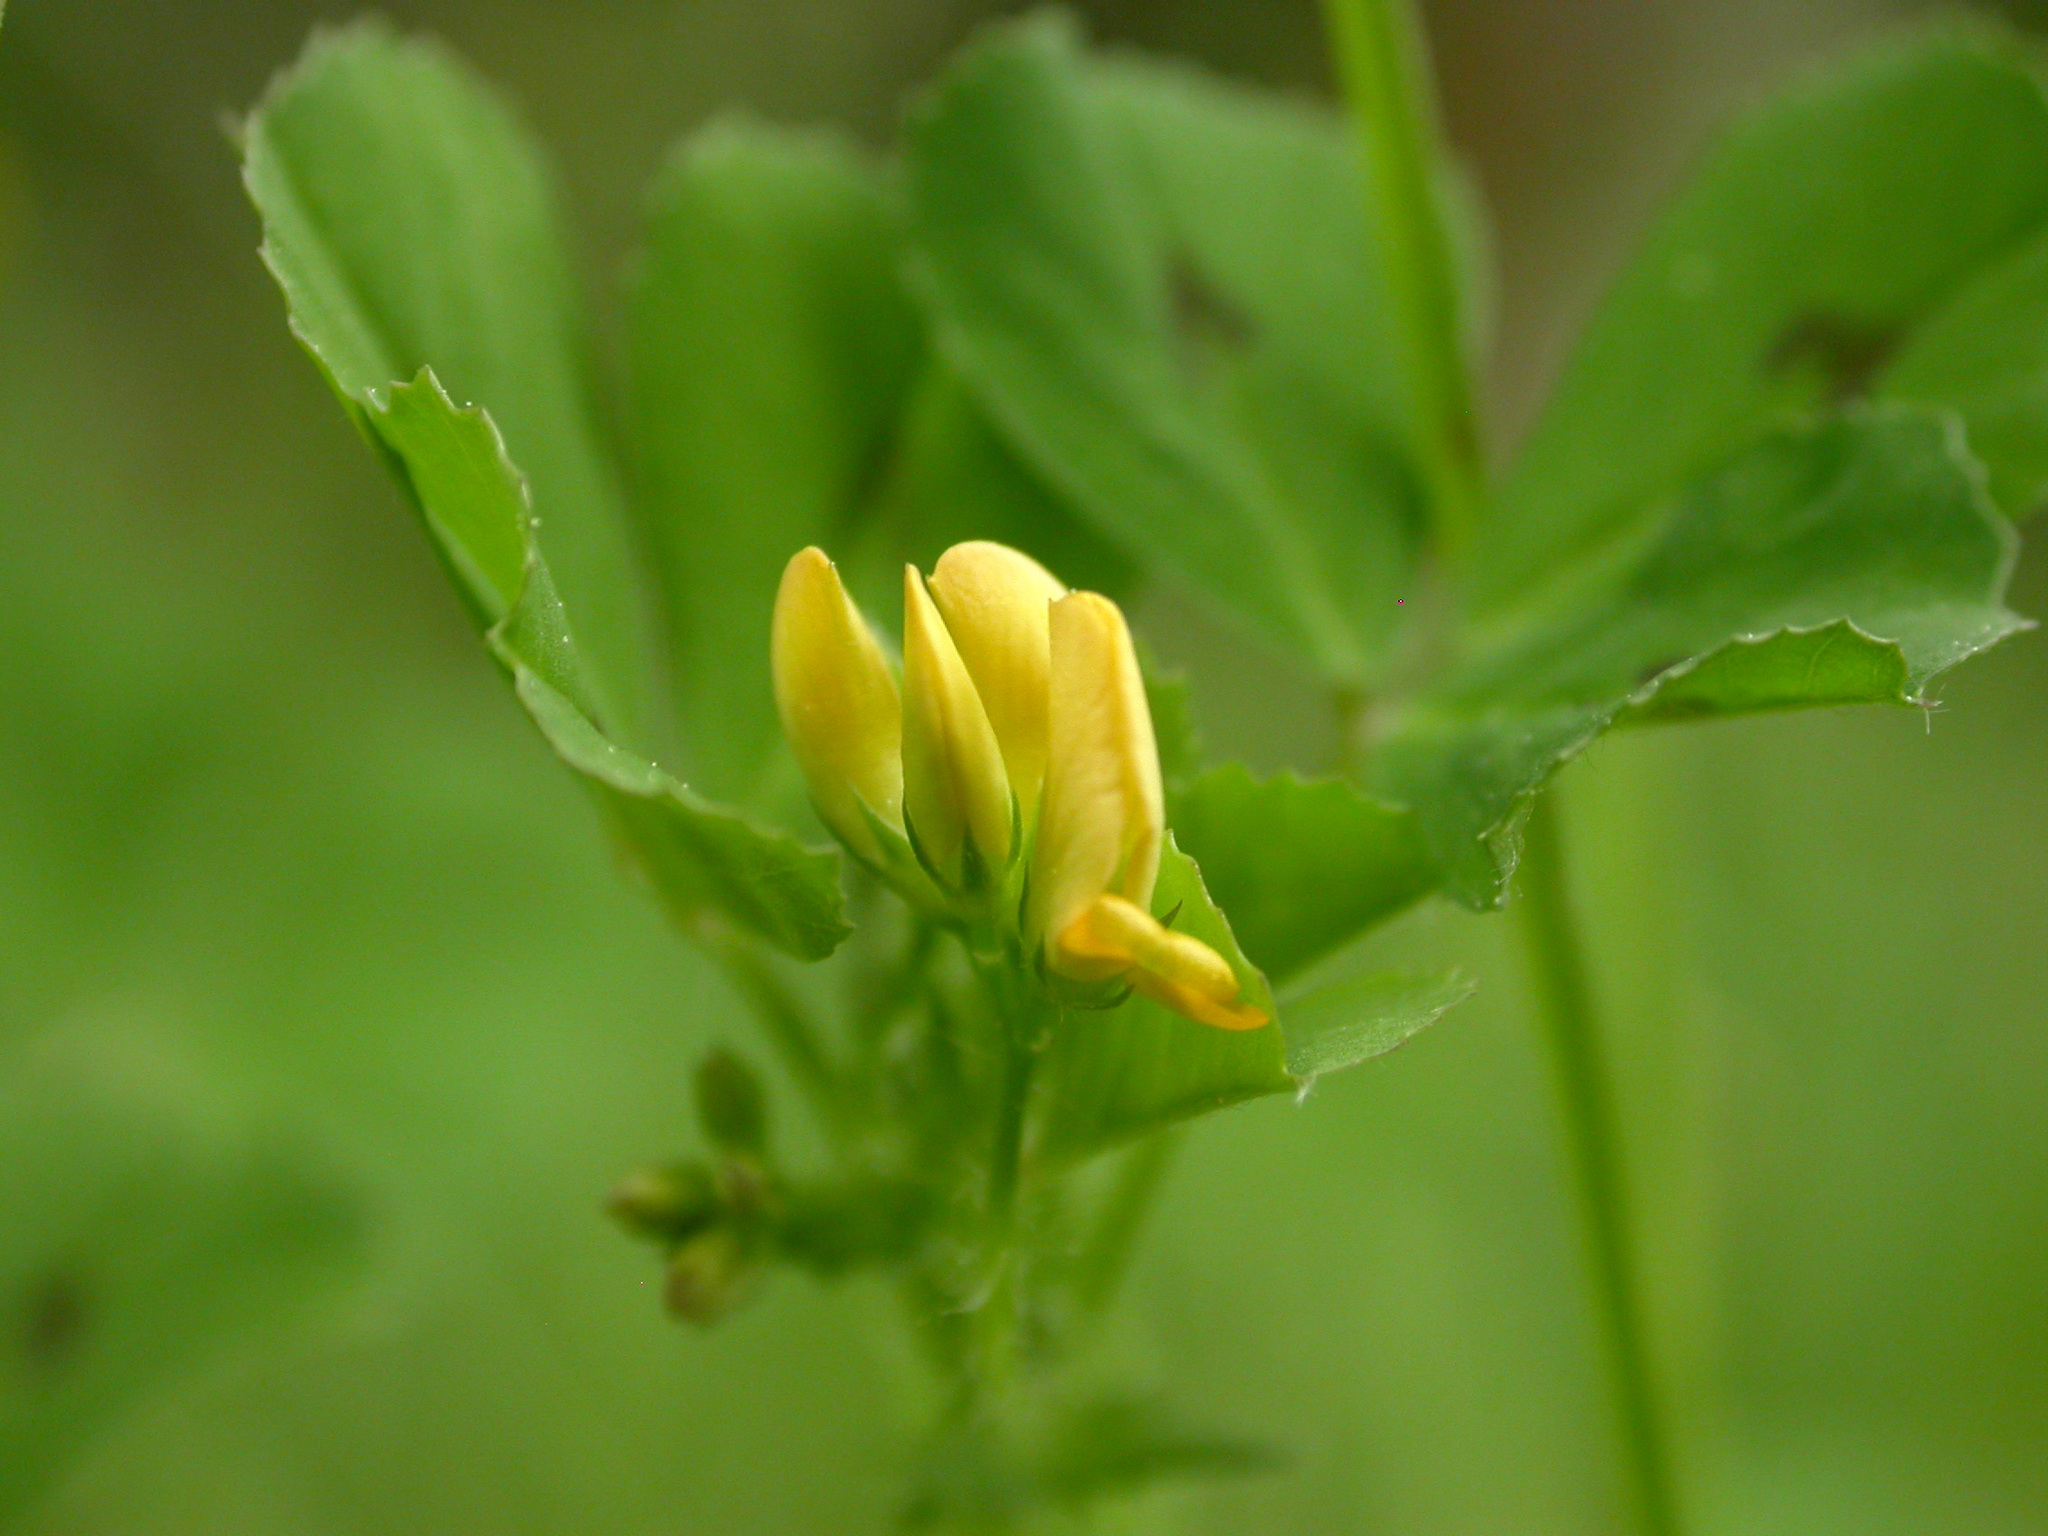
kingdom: Plantae
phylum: Tracheophyta
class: Magnoliopsida
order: Fabales
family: Fabaceae
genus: Medicago
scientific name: Medicago arabica
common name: Spotted medick
